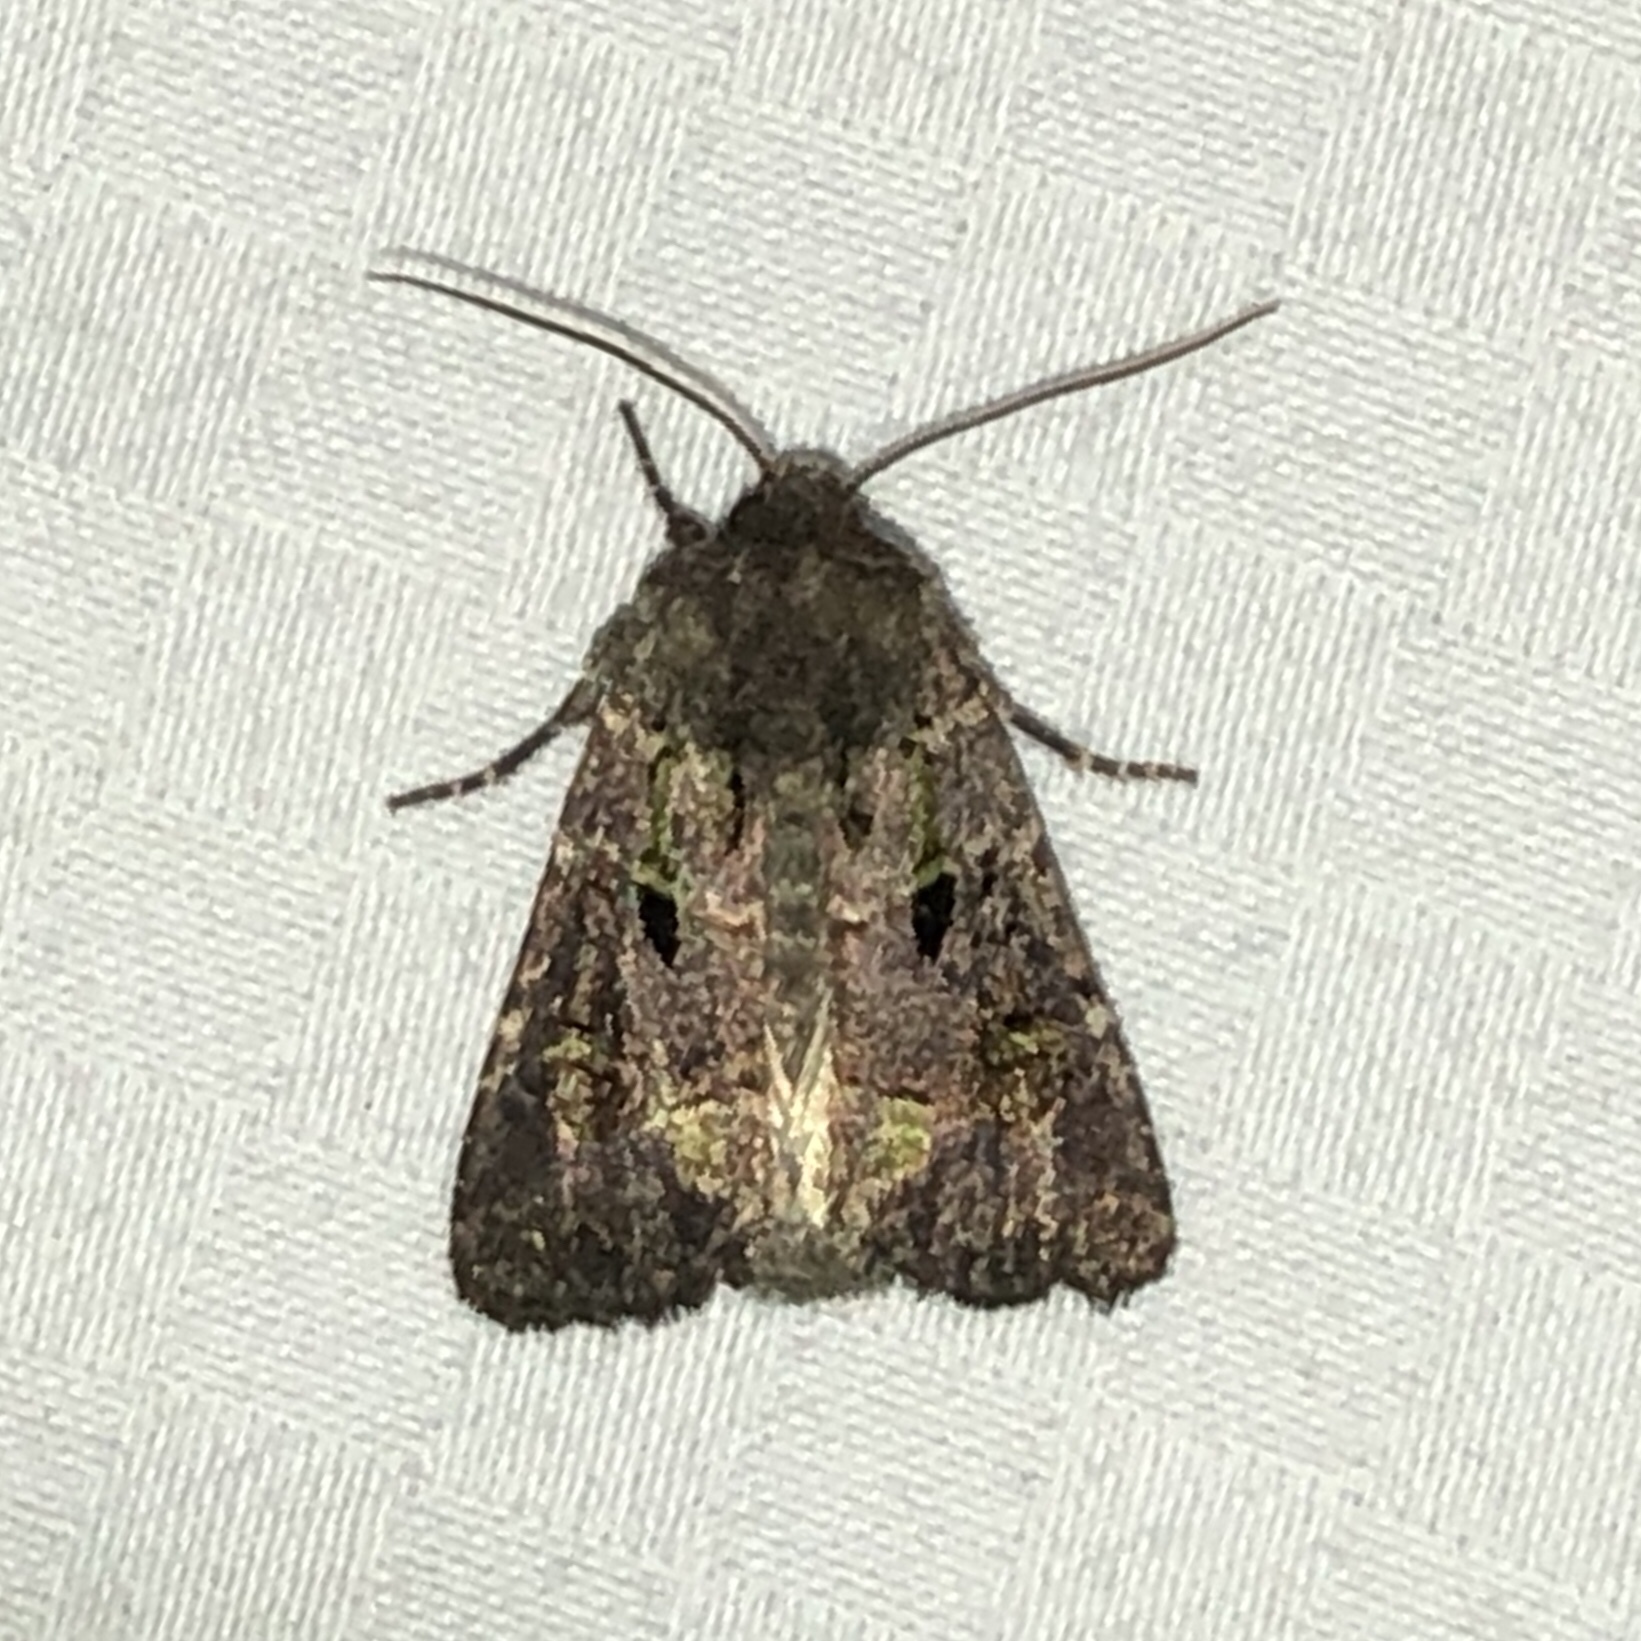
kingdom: Animalia
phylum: Arthropoda
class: Insecta
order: Lepidoptera
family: Noctuidae
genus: Lacinipolia
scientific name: Lacinipolia renigera
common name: Kidney-spotted minor
